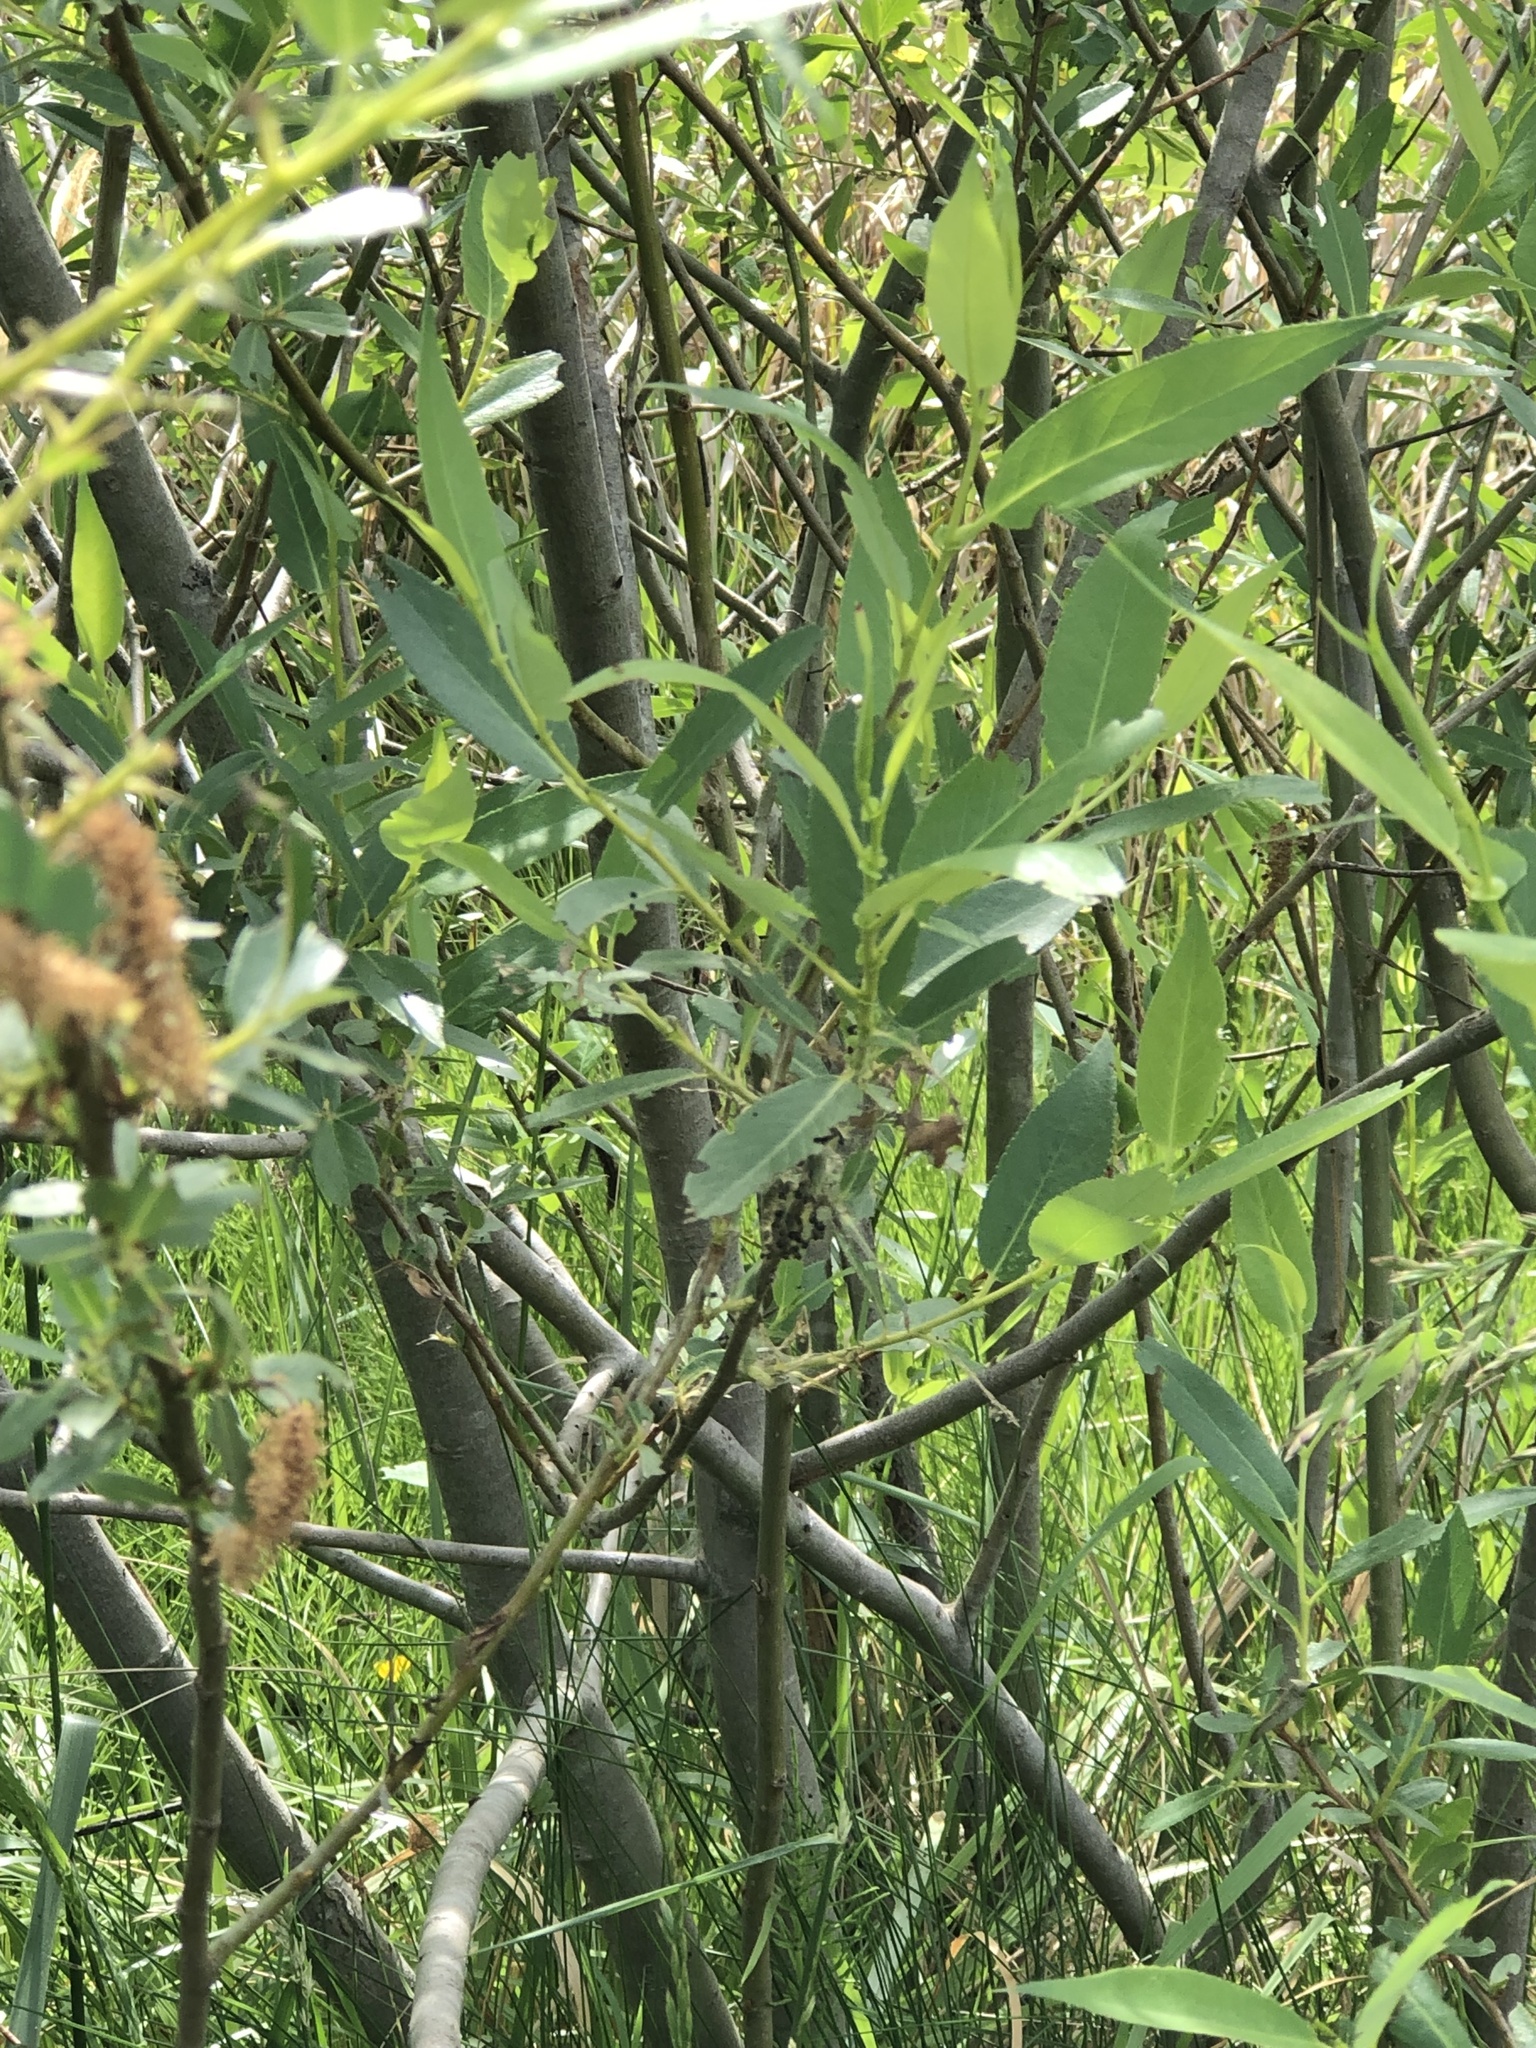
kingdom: Plantae
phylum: Tracheophyta
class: Magnoliopsida
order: Malpighiales
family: Salicaceae
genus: Salix
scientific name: Salix lucida
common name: Shining willow
